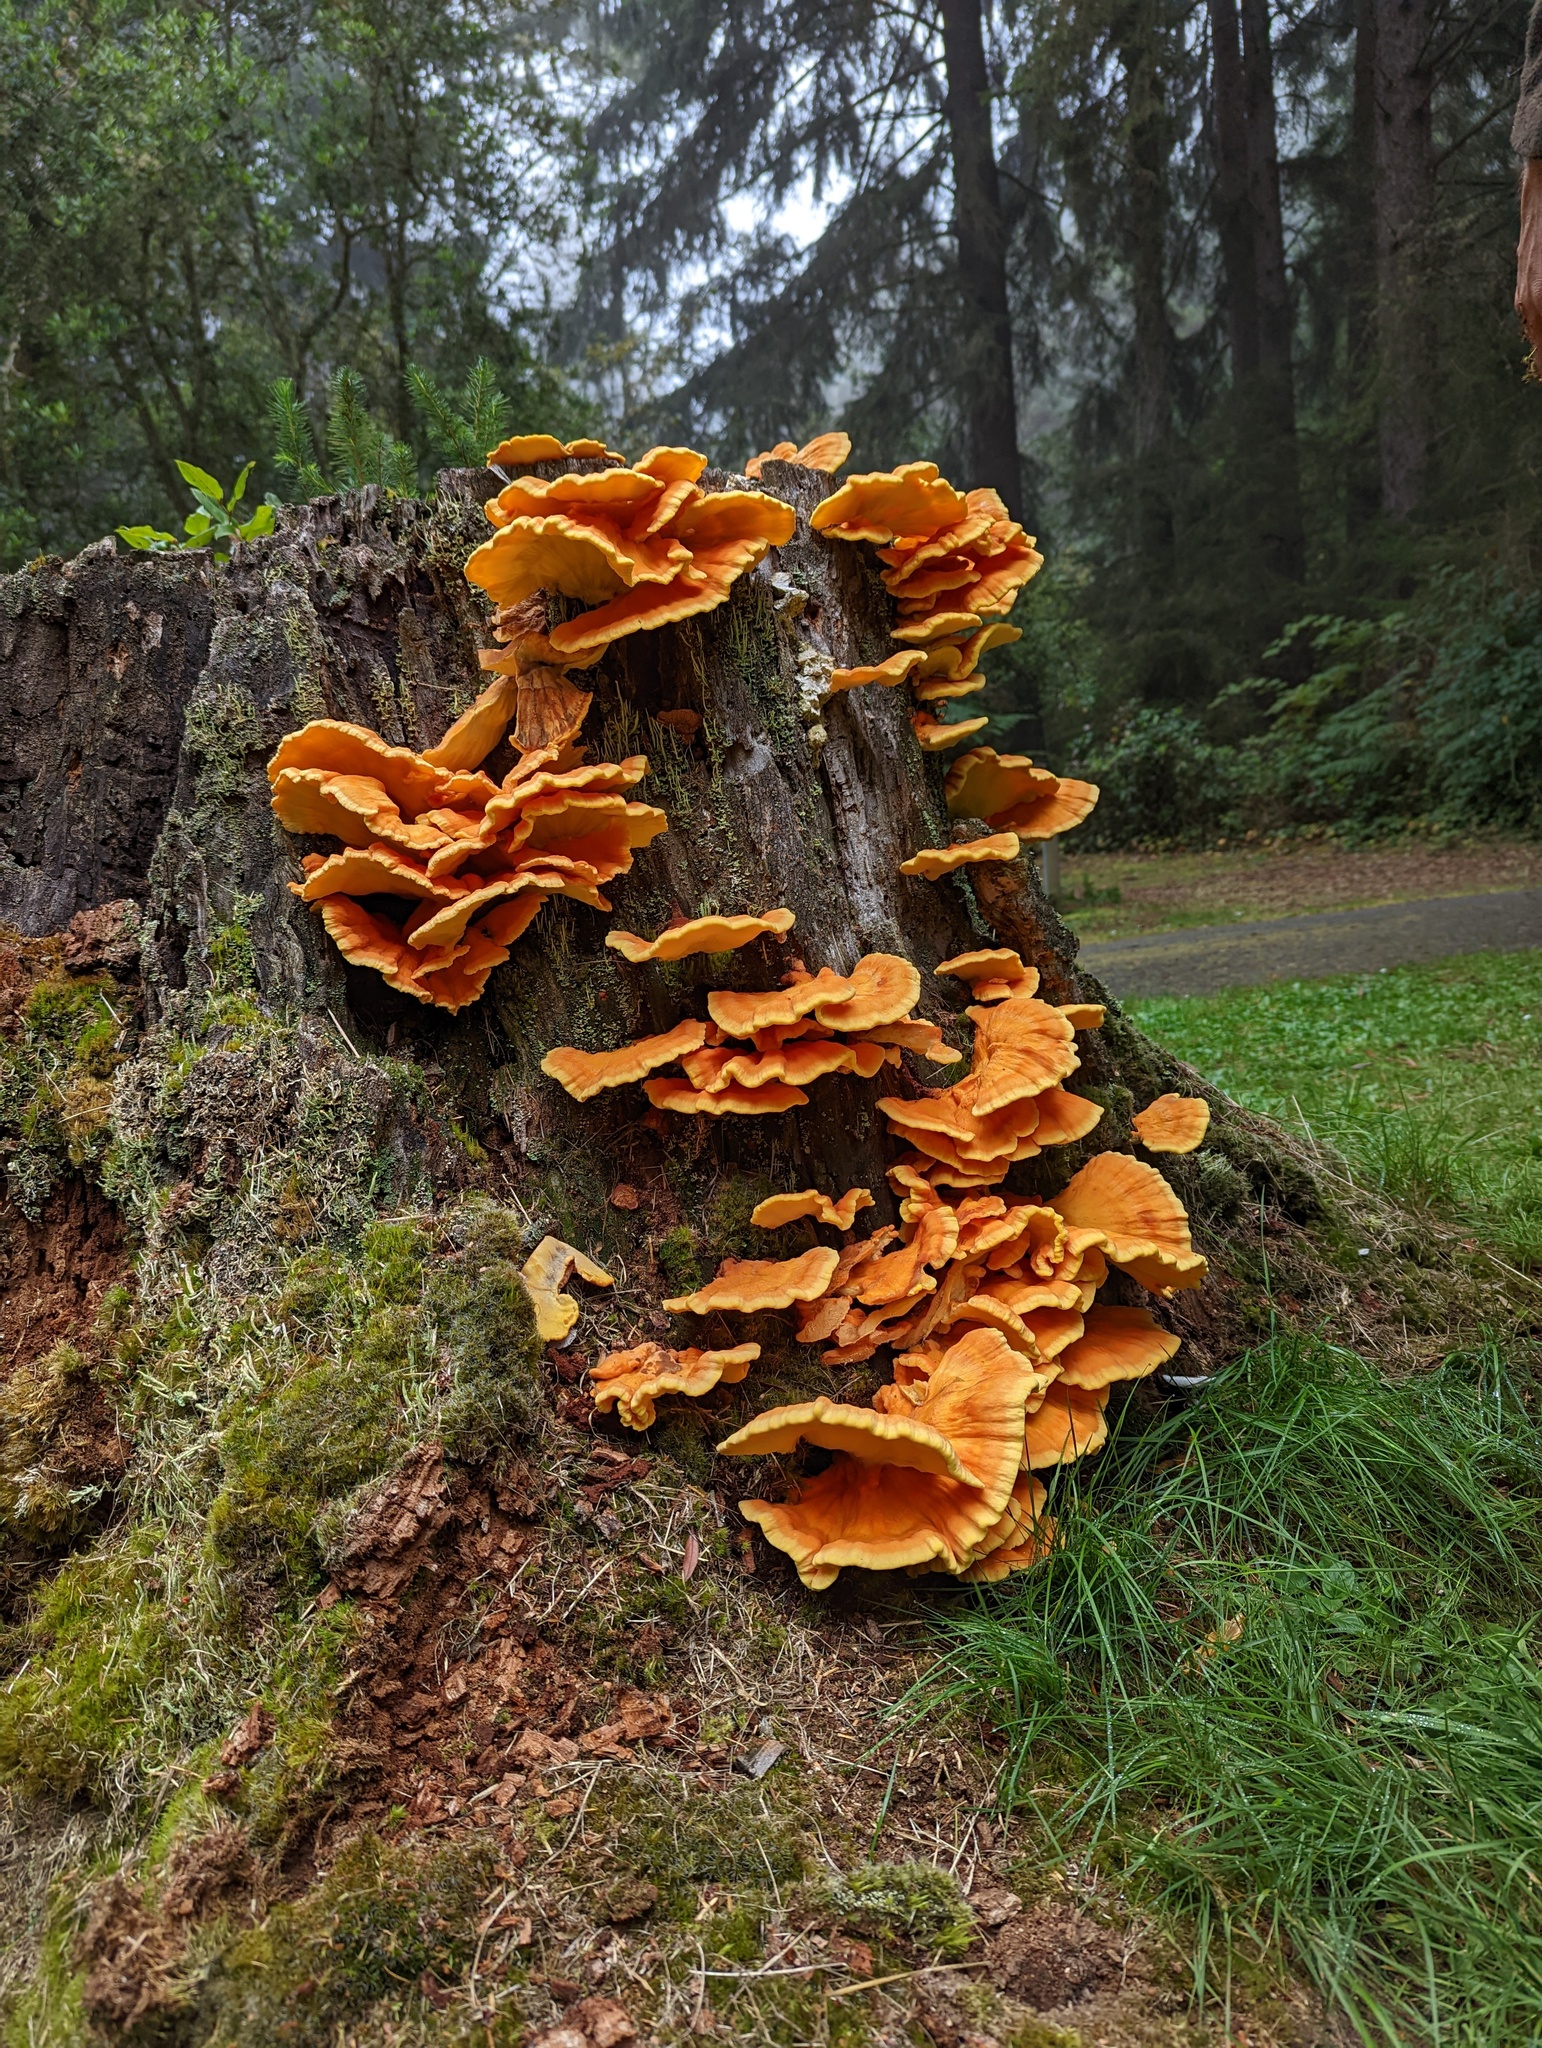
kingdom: Fungi
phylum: Basidiomycota
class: Agaricomycetes
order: Polyporales
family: Laetiporaceae
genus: Laetiporus
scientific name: Laetiporus conifericola
